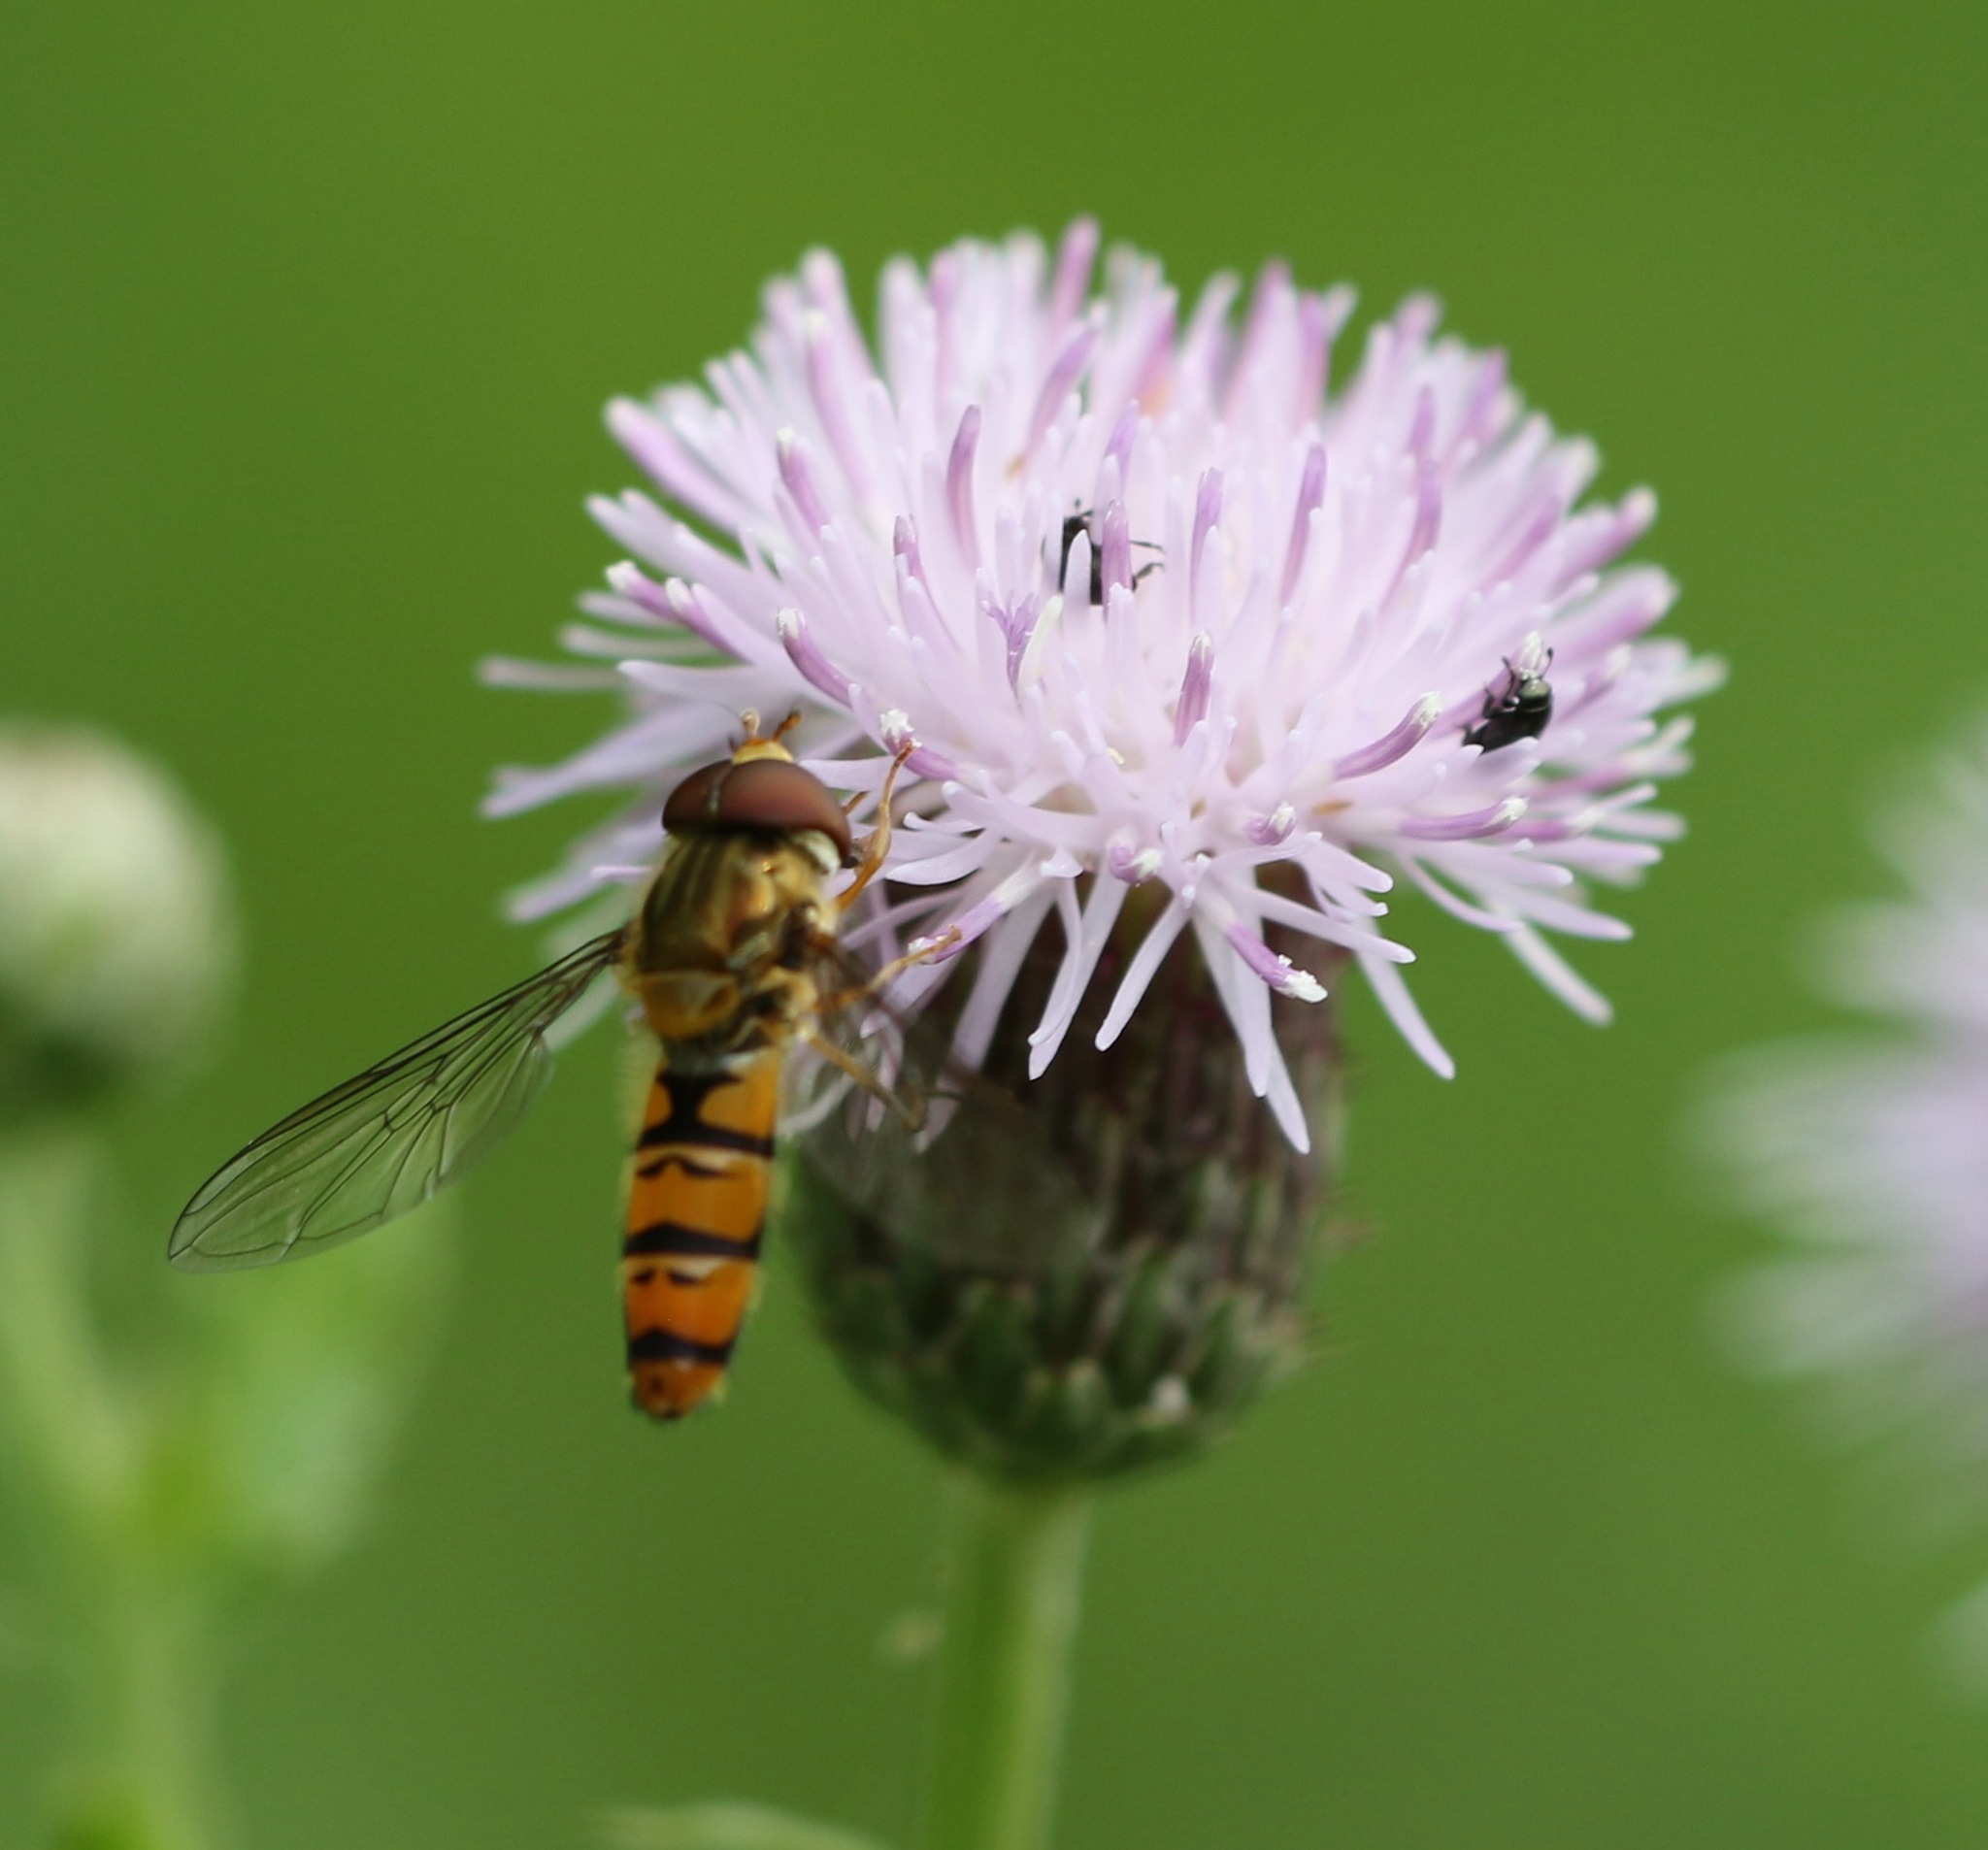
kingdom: Animalia
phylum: Arthropoda
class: Insecta
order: Diptera
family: Syrphidae
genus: Episyrphus
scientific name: Episyrphus balteatus
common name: Marmalade hoverfly
